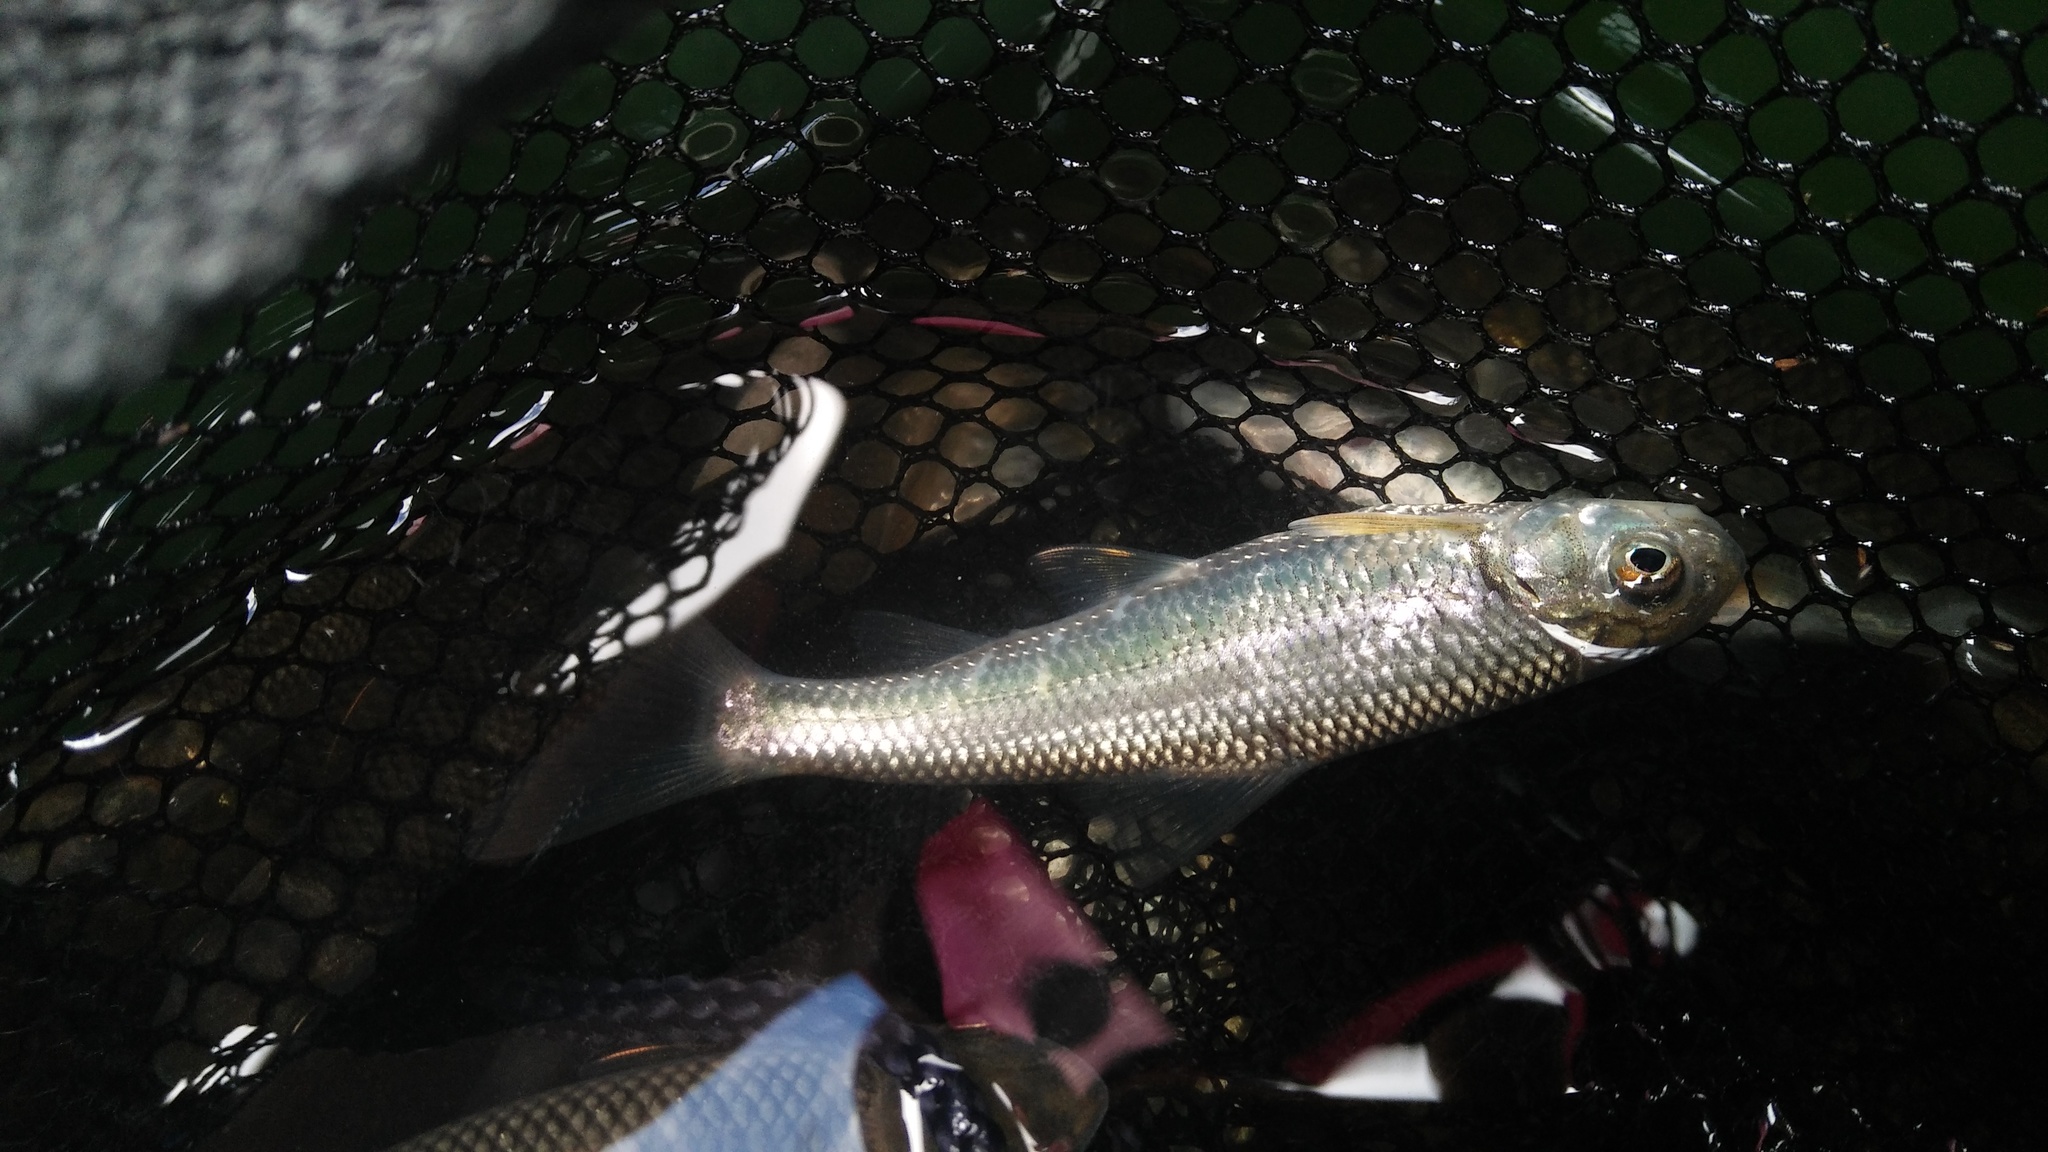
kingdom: Animalia
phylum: Chordata
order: Cypriniformes
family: Cyprinidae
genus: Onychostoma
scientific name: Onychostoma barbatulum
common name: Taiwan shoveljaw carp
